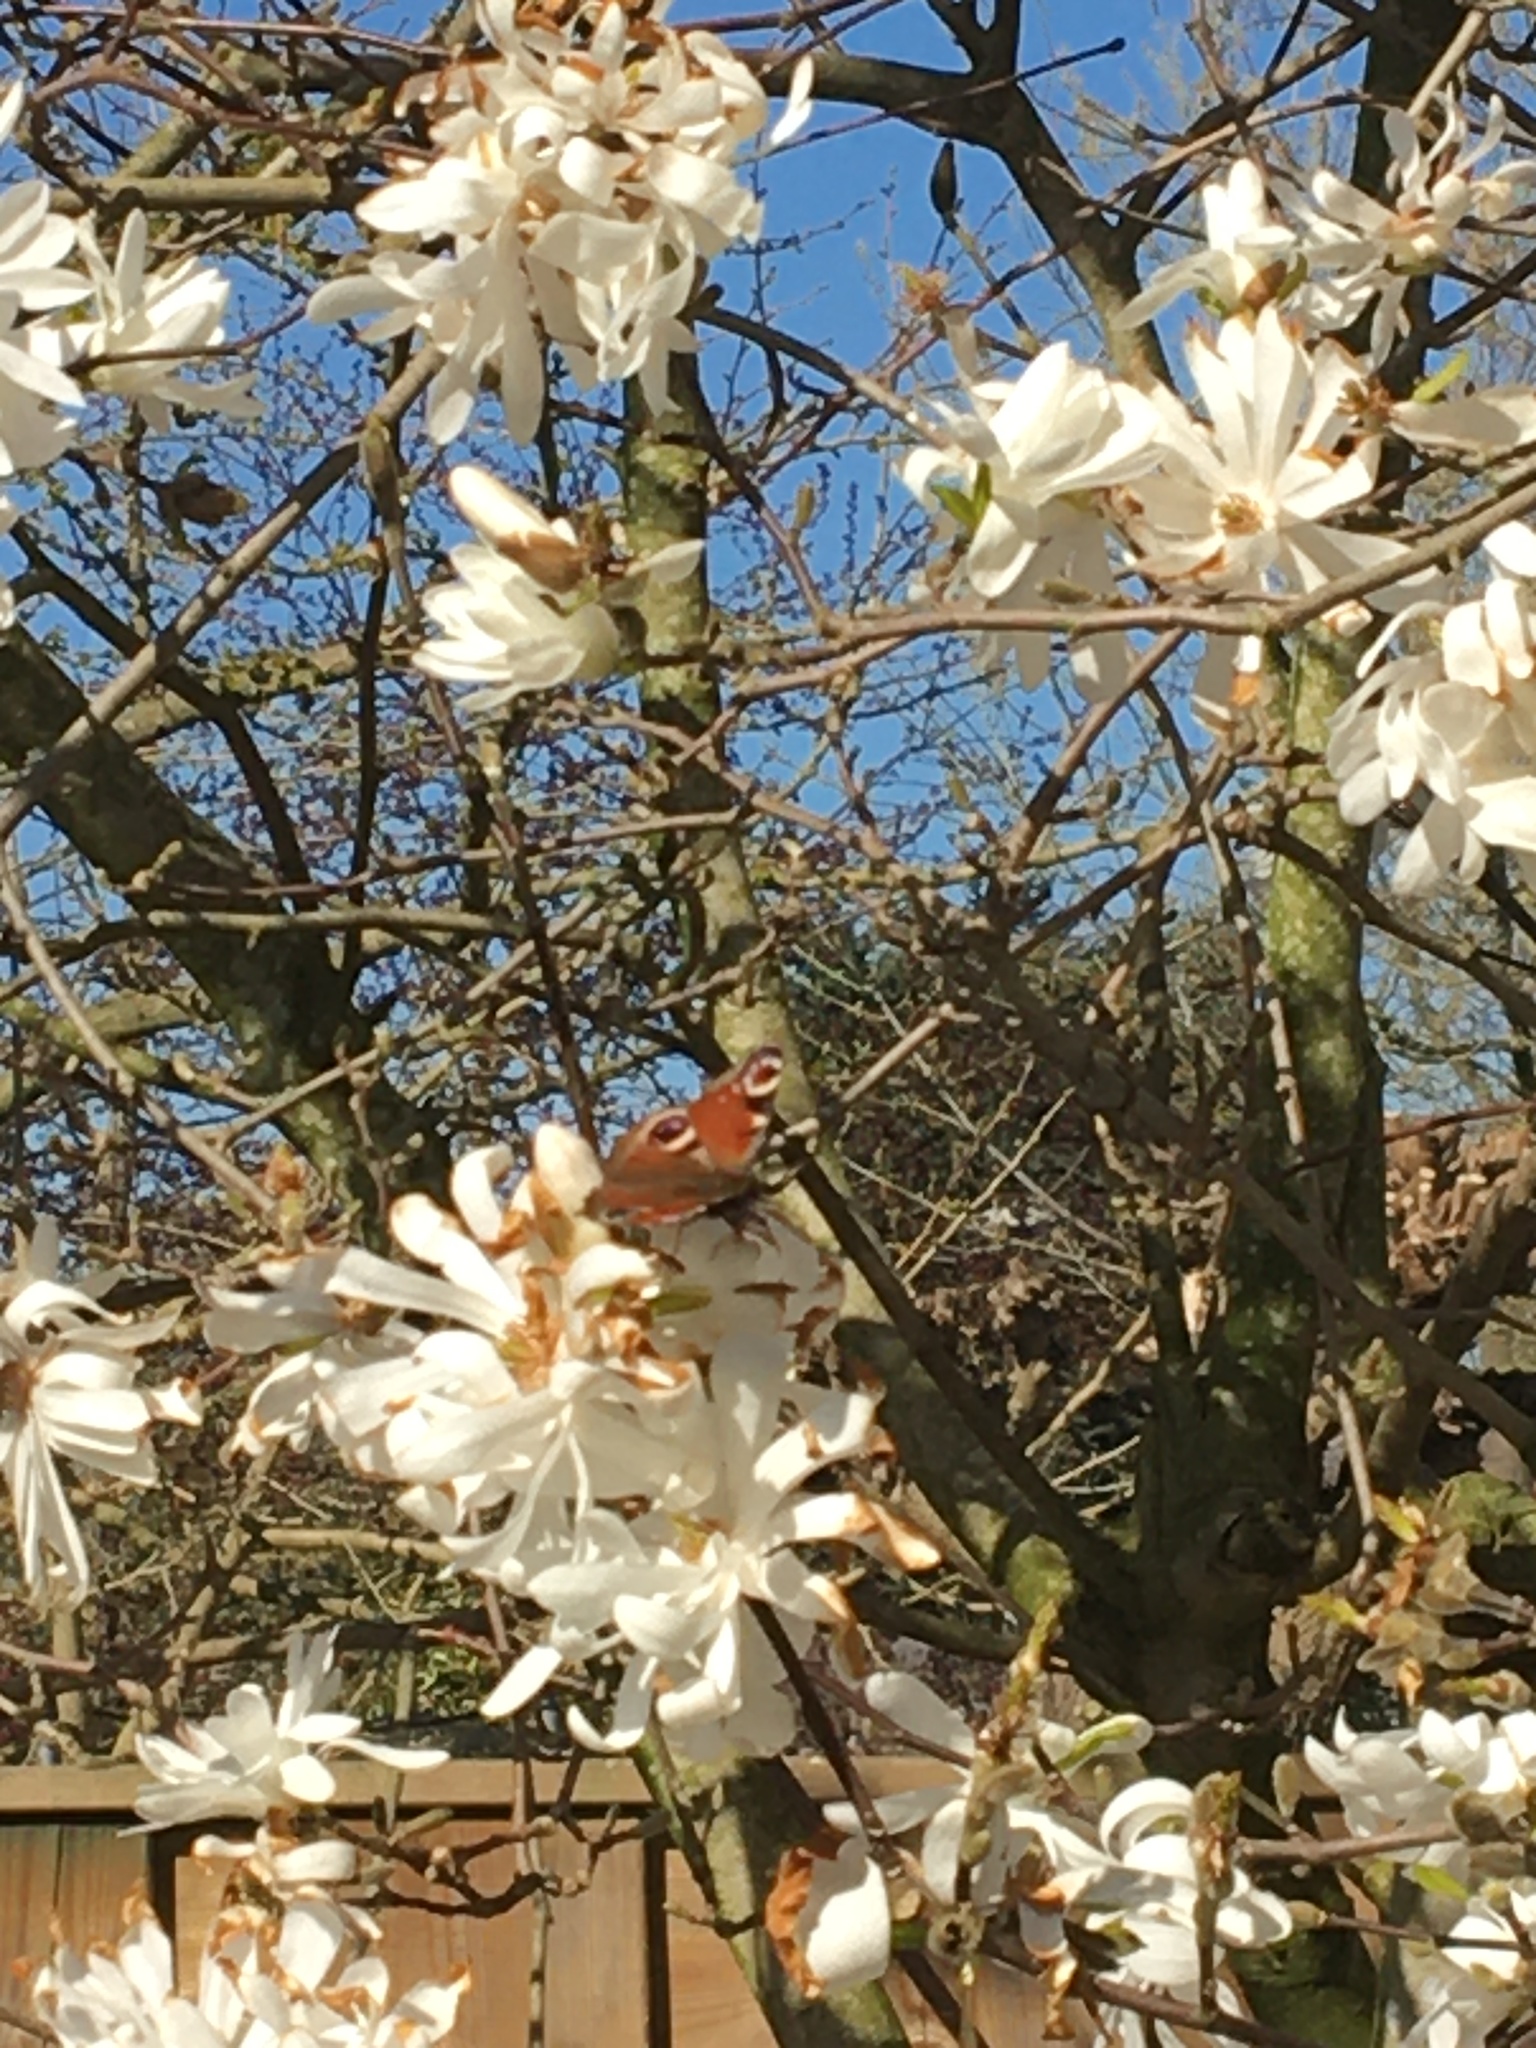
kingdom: Animalia
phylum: Arthropoda
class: Insecta
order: Lepidoptera
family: Nymphalidae
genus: Aglais
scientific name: Aglais io
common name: Peacock
